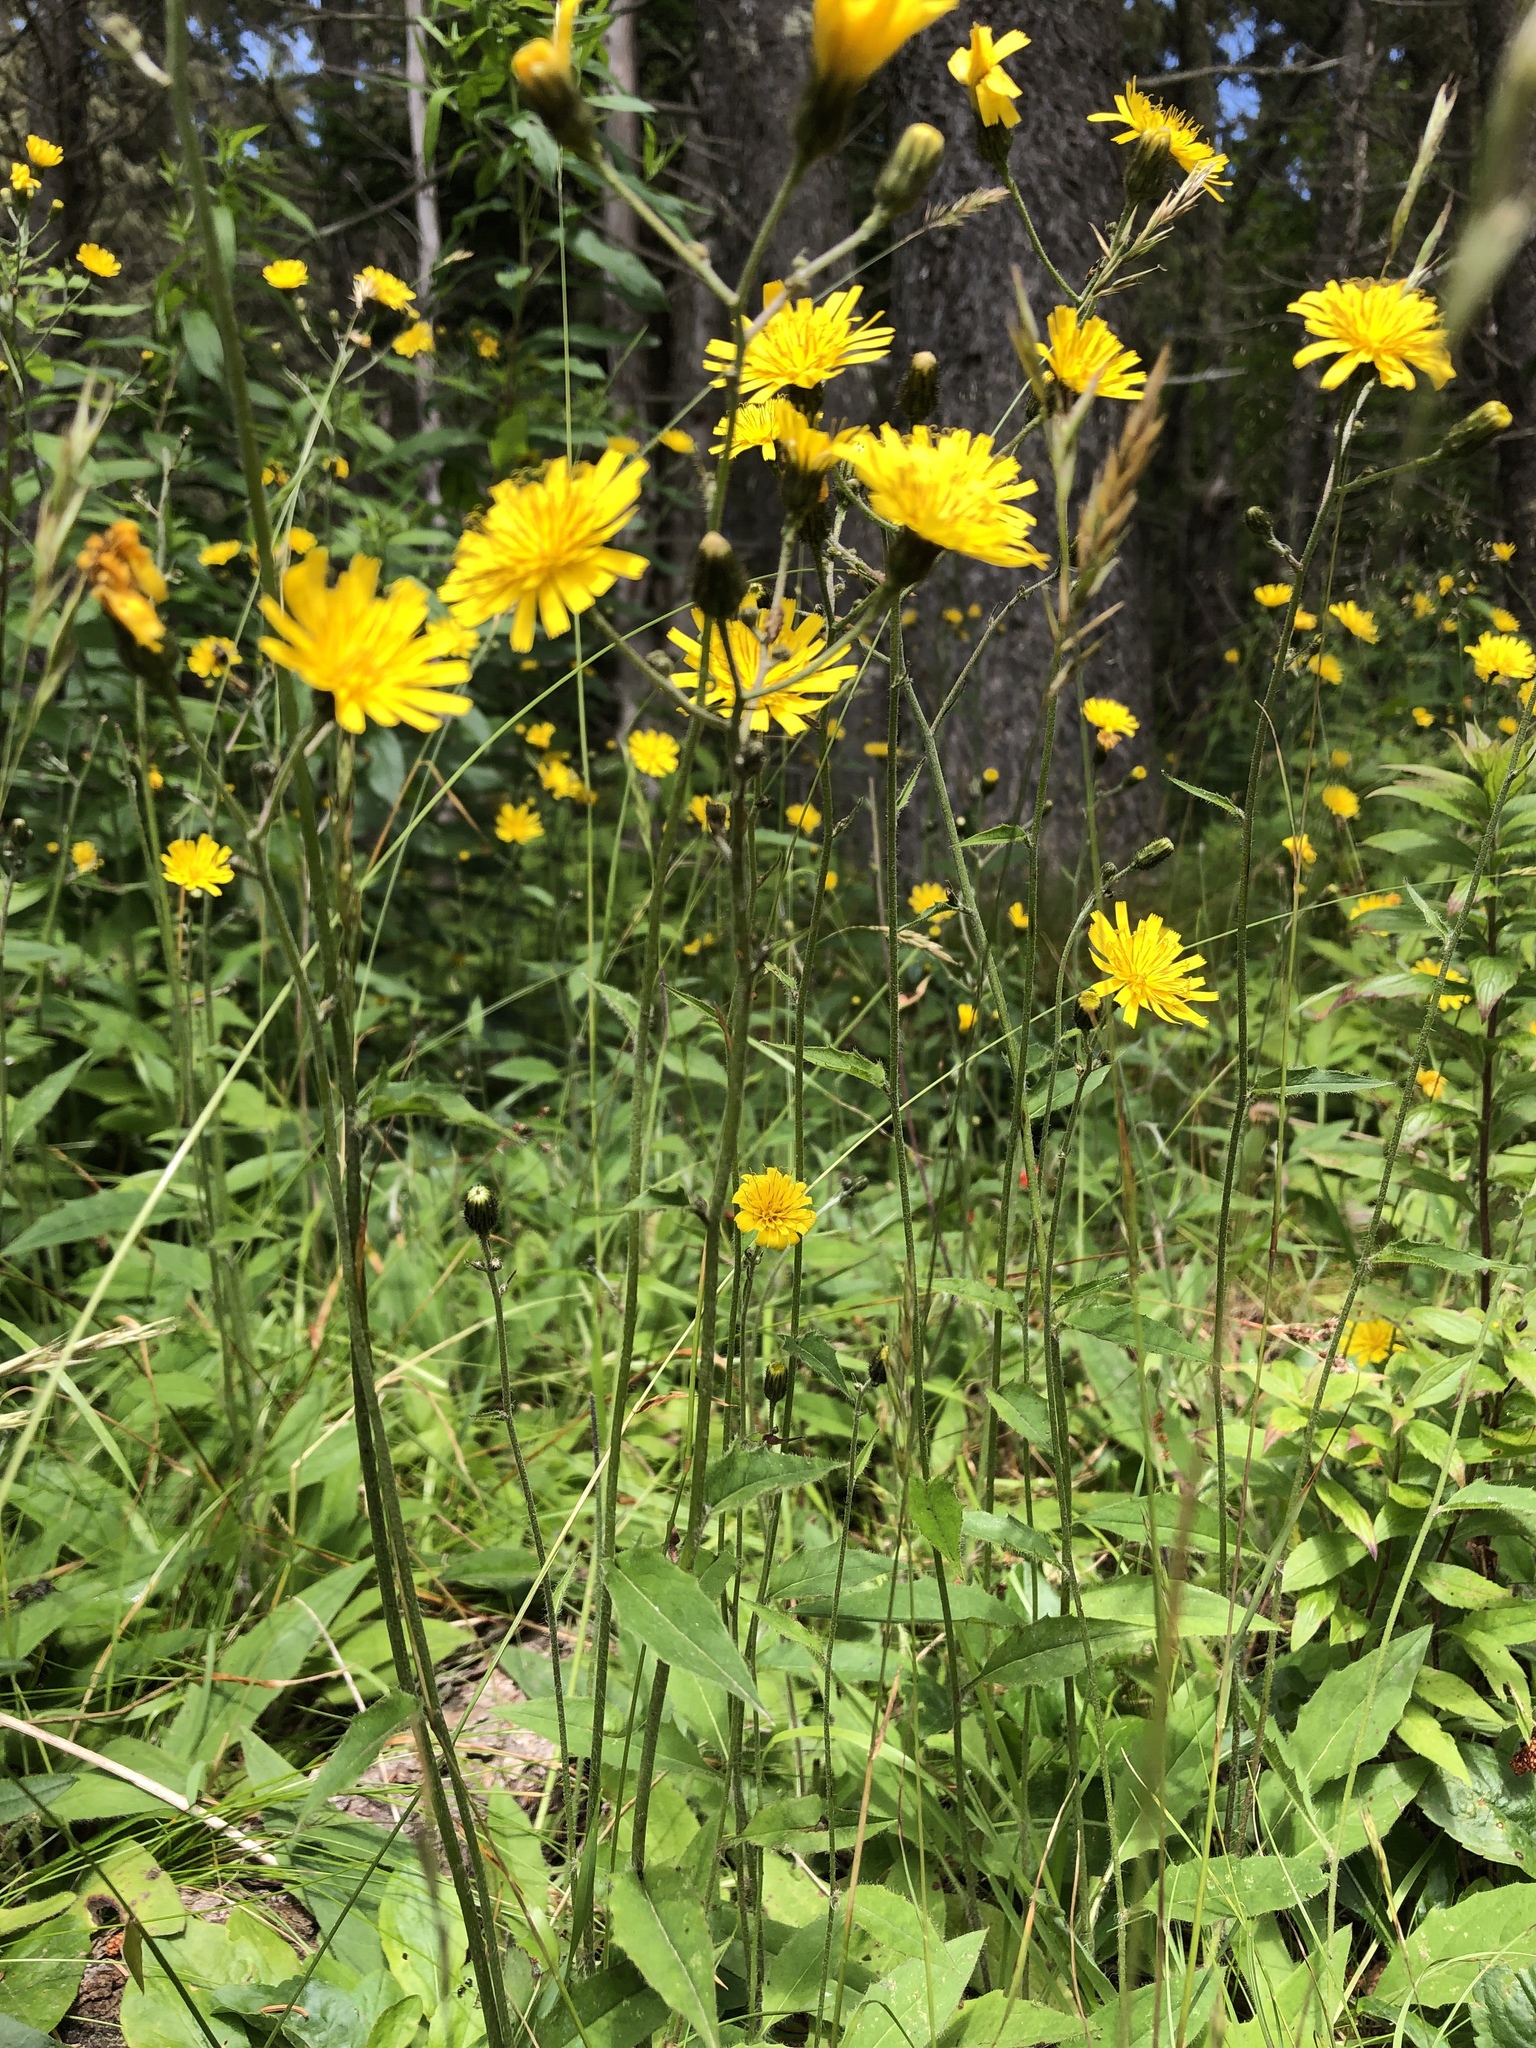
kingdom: Plantae
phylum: Tracheophyta
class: Magnoliopsida
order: Asterales
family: Asteraceae
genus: Hieracium
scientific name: Hieracium lachenalii
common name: Common hawkweed
